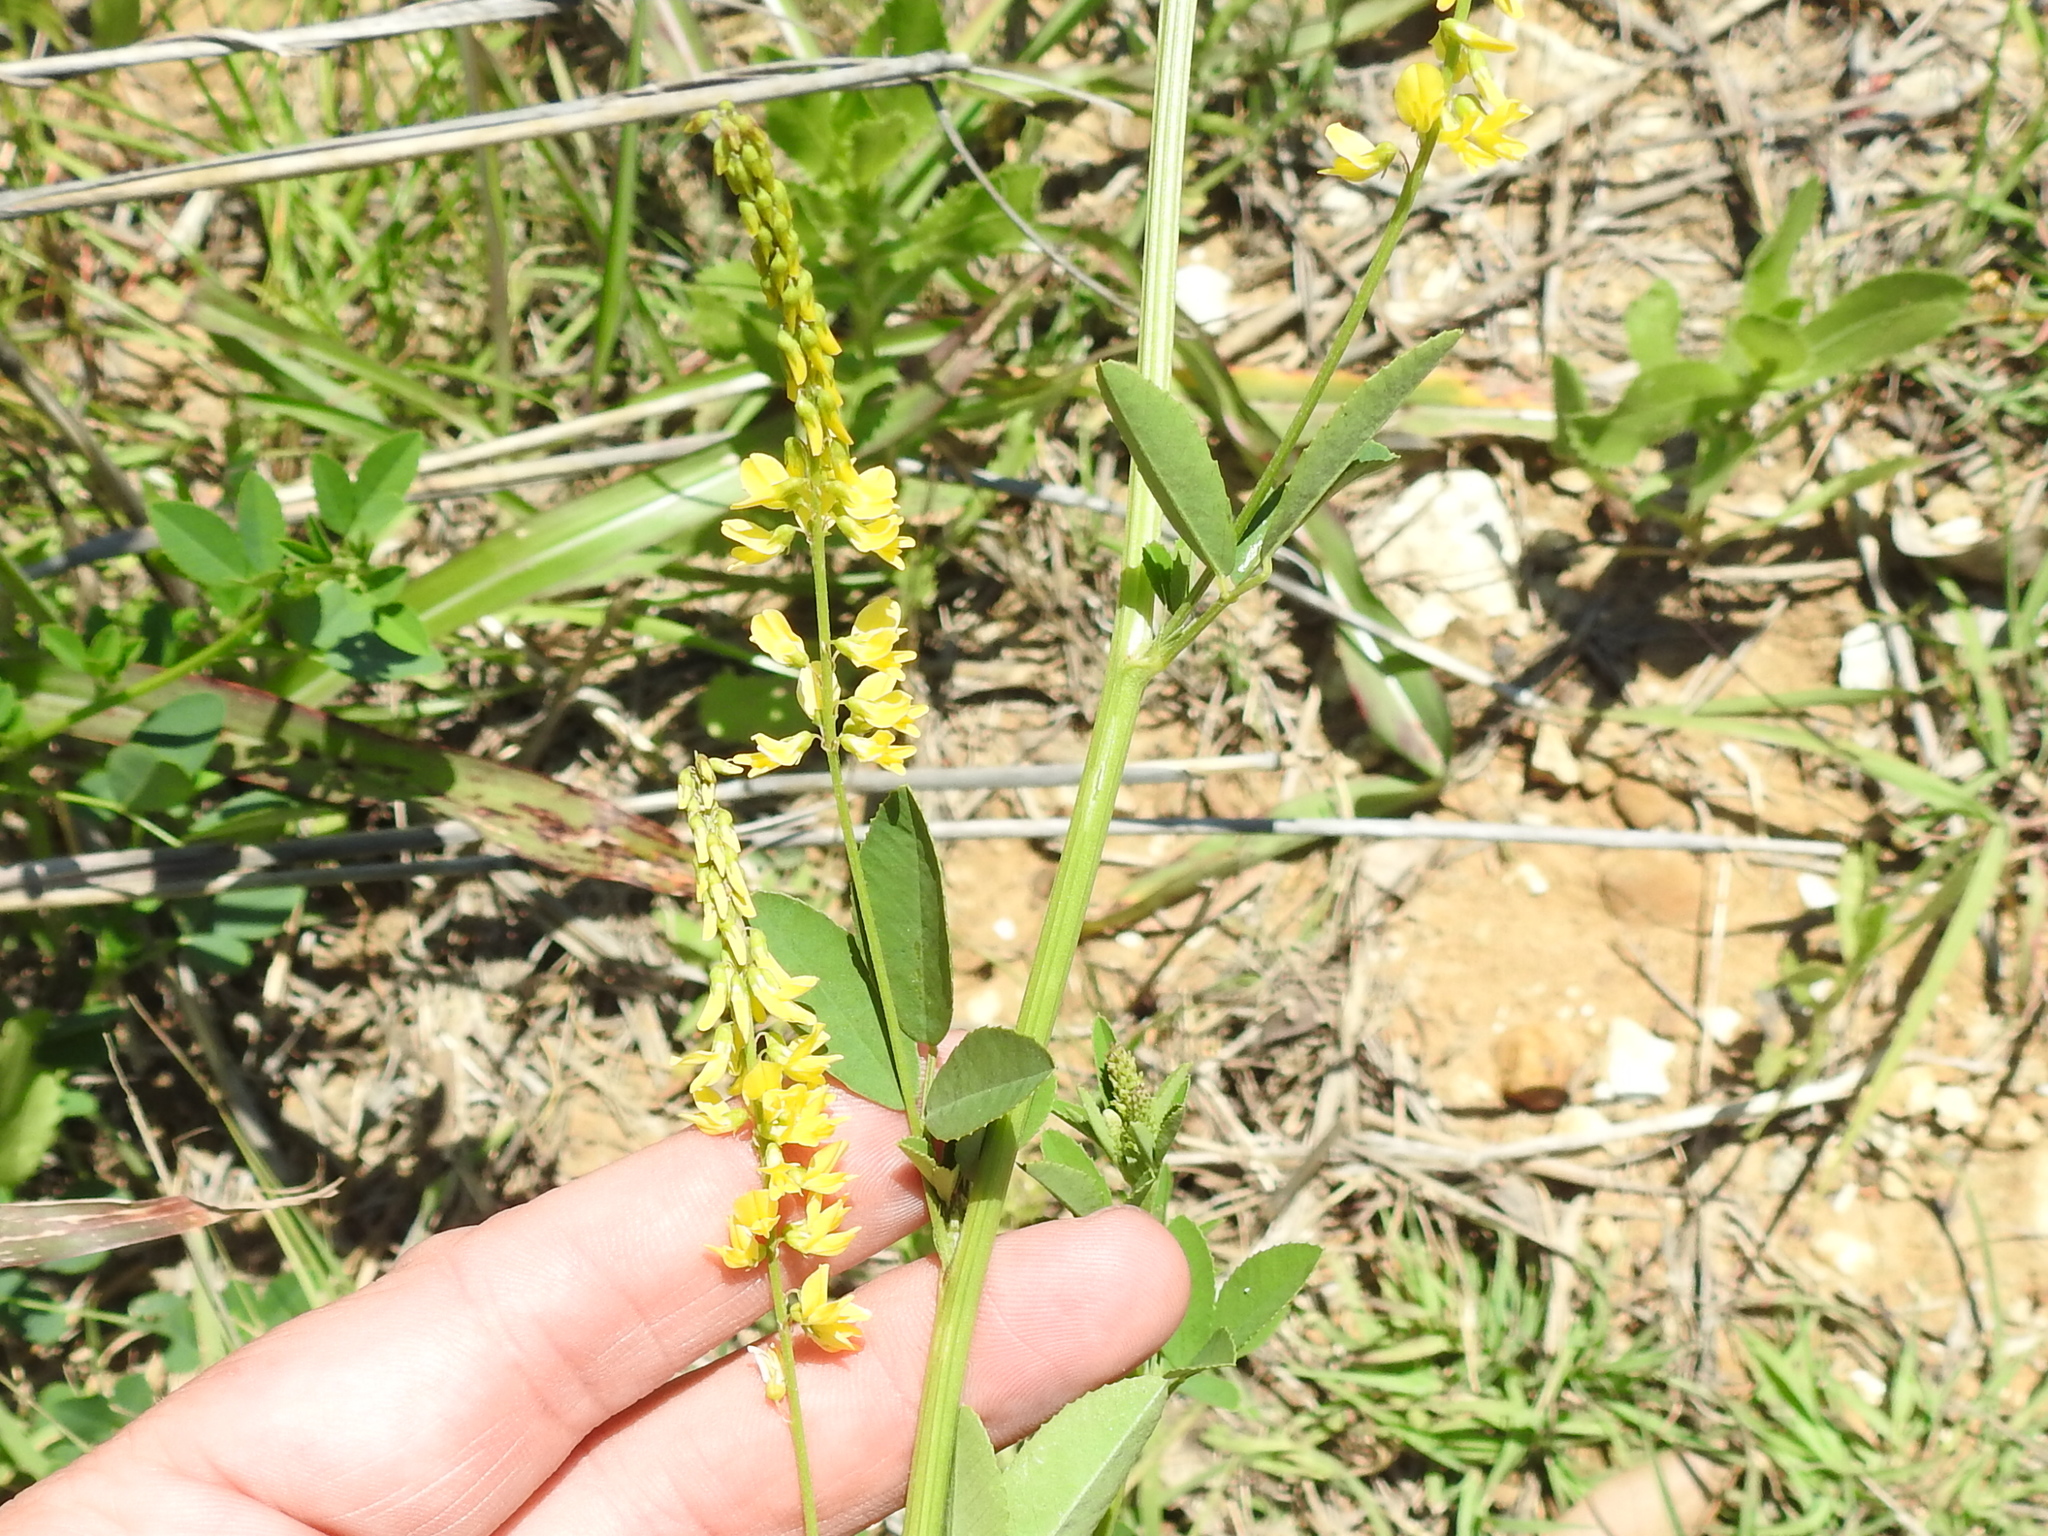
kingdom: Plantae
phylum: Tracheophyta
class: Magnoliopsida
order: Fabales
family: Fabaceae
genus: Melilotus
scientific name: Melilotus officinalis
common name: Sweetclover
